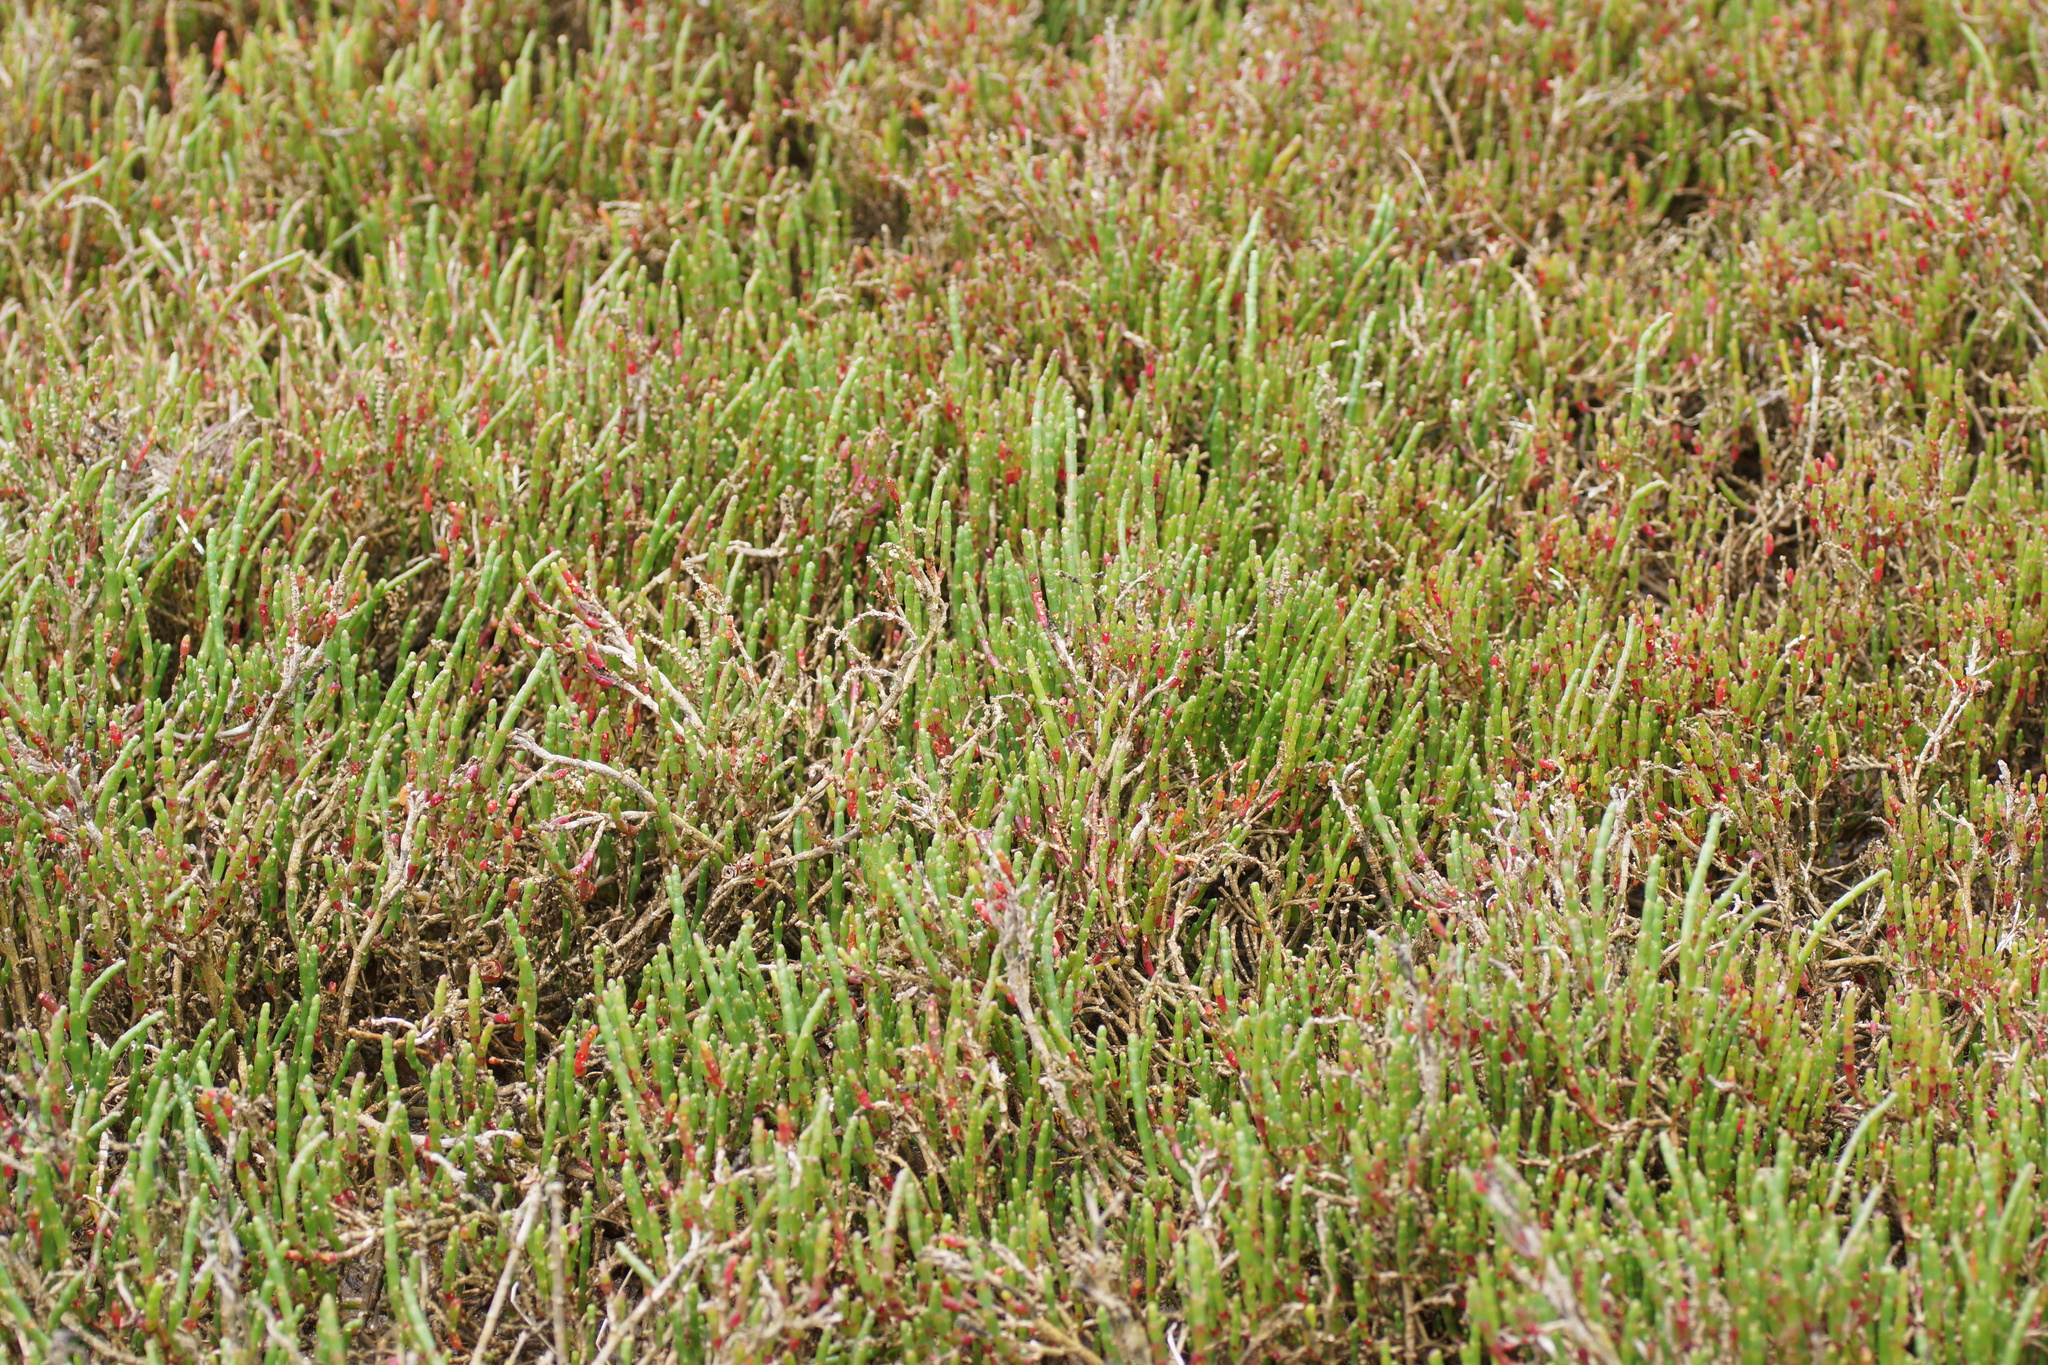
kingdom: Plantae
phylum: Tracheophyta
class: Magnoliopsida
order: Caryophyllales
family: Amaranthaceae
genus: Salicornia
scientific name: Salicornia quinqueflora
